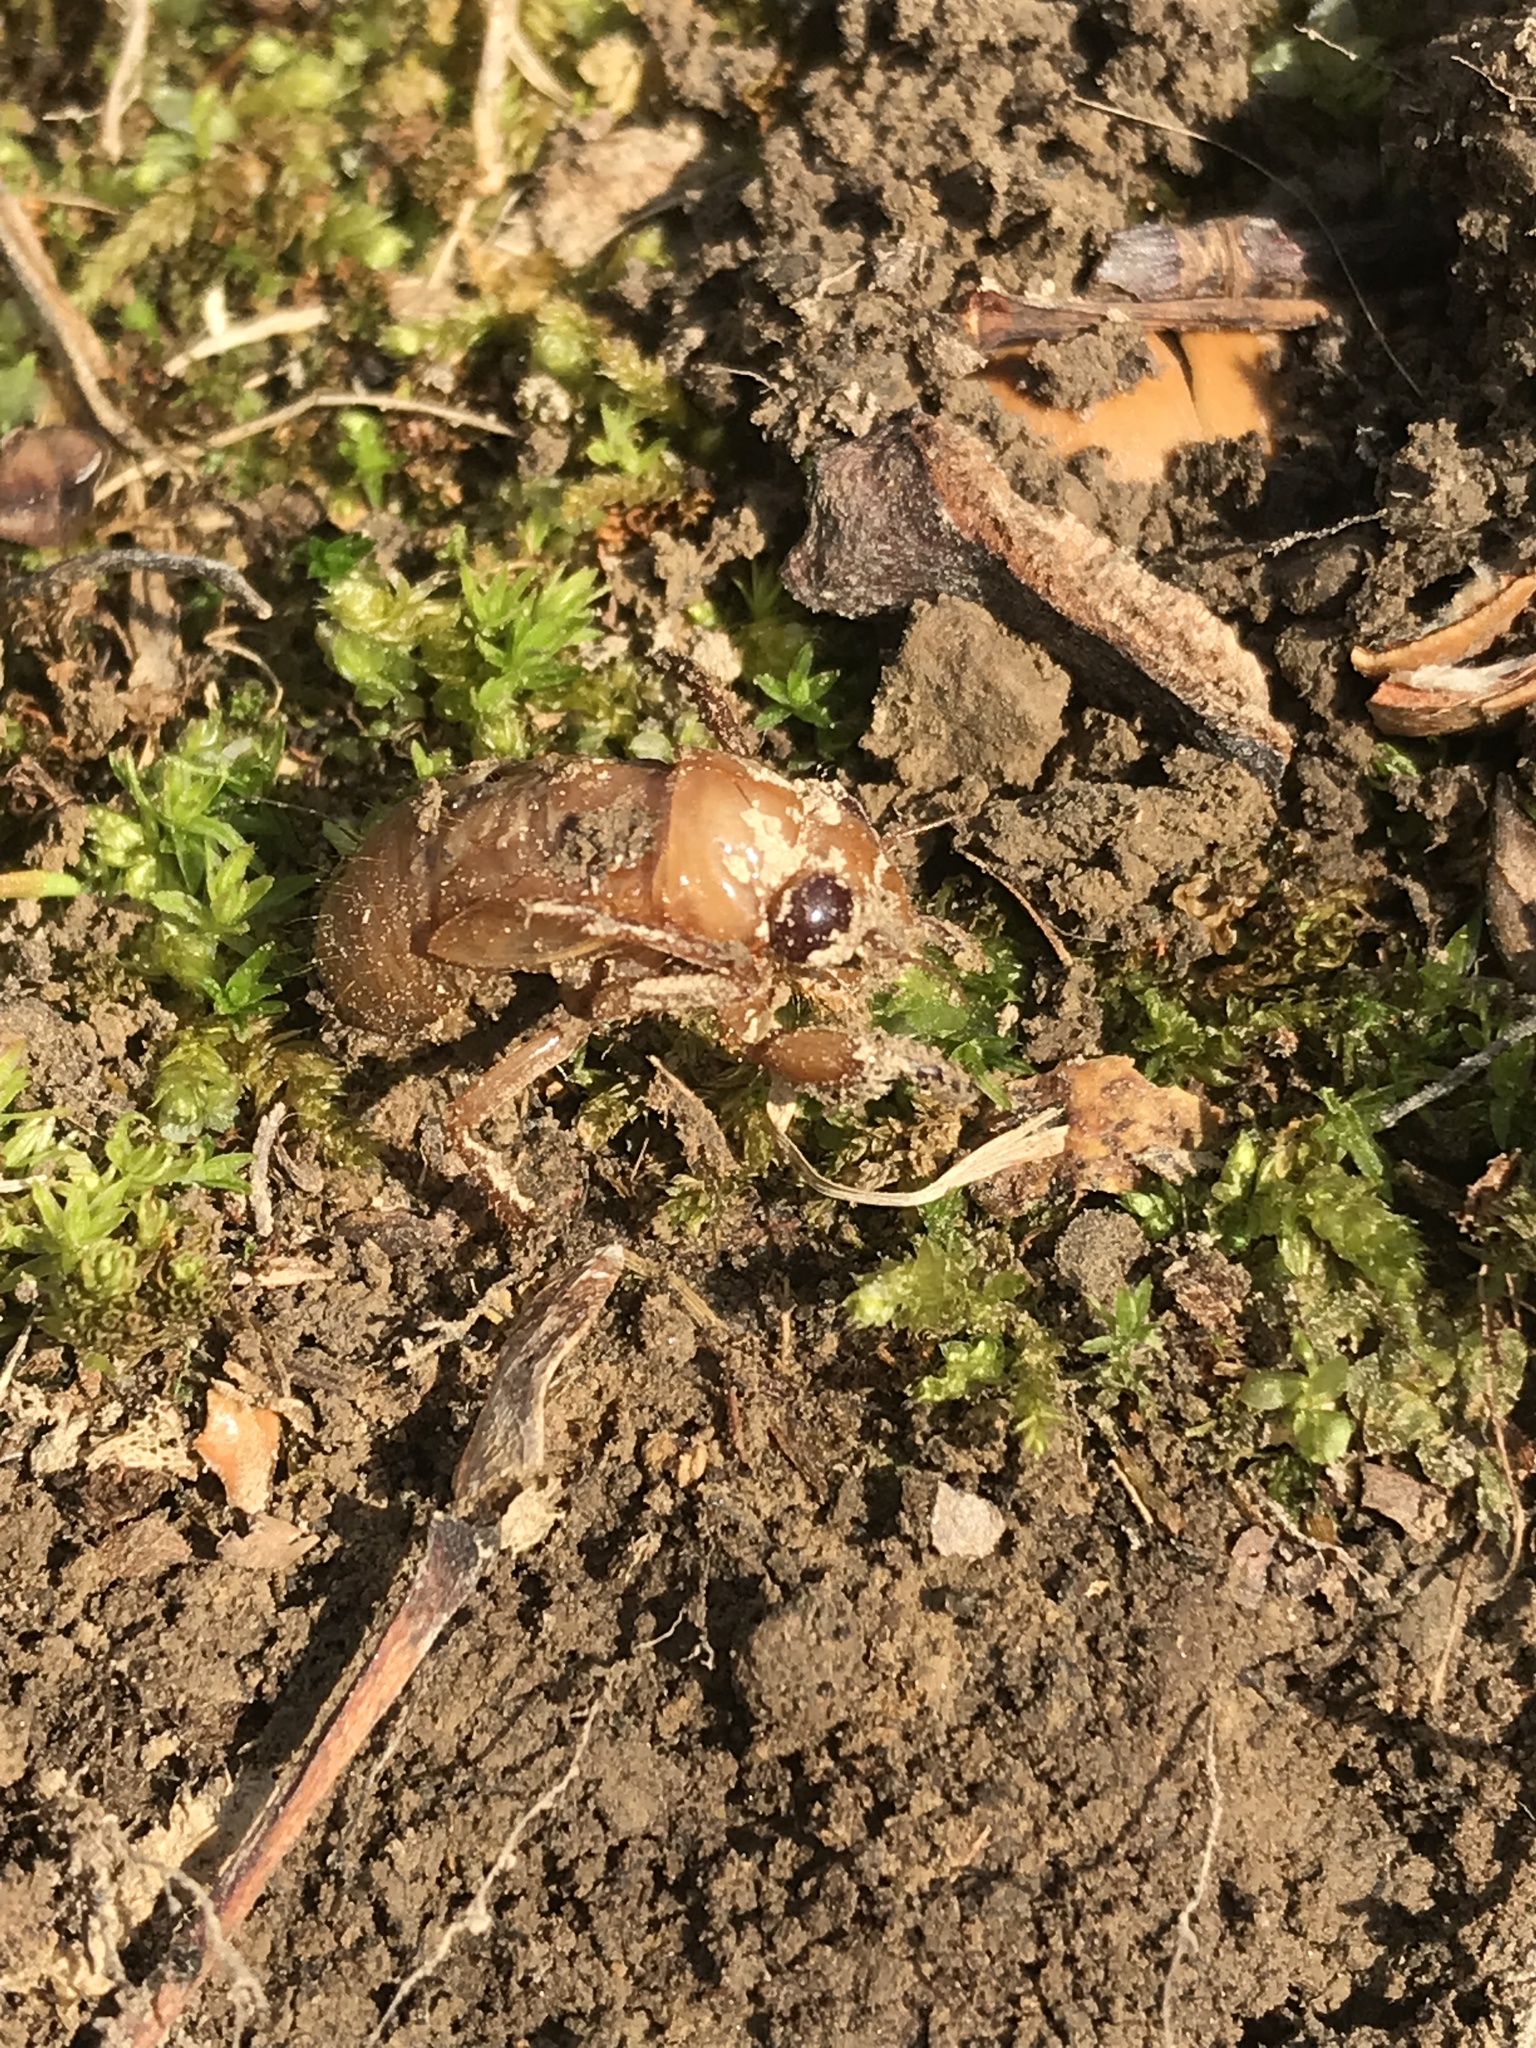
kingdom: Animalia
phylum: Arthropoda
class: Insecta
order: Hemiptera
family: Cicadidae
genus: Magicicada
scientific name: Magicicada
